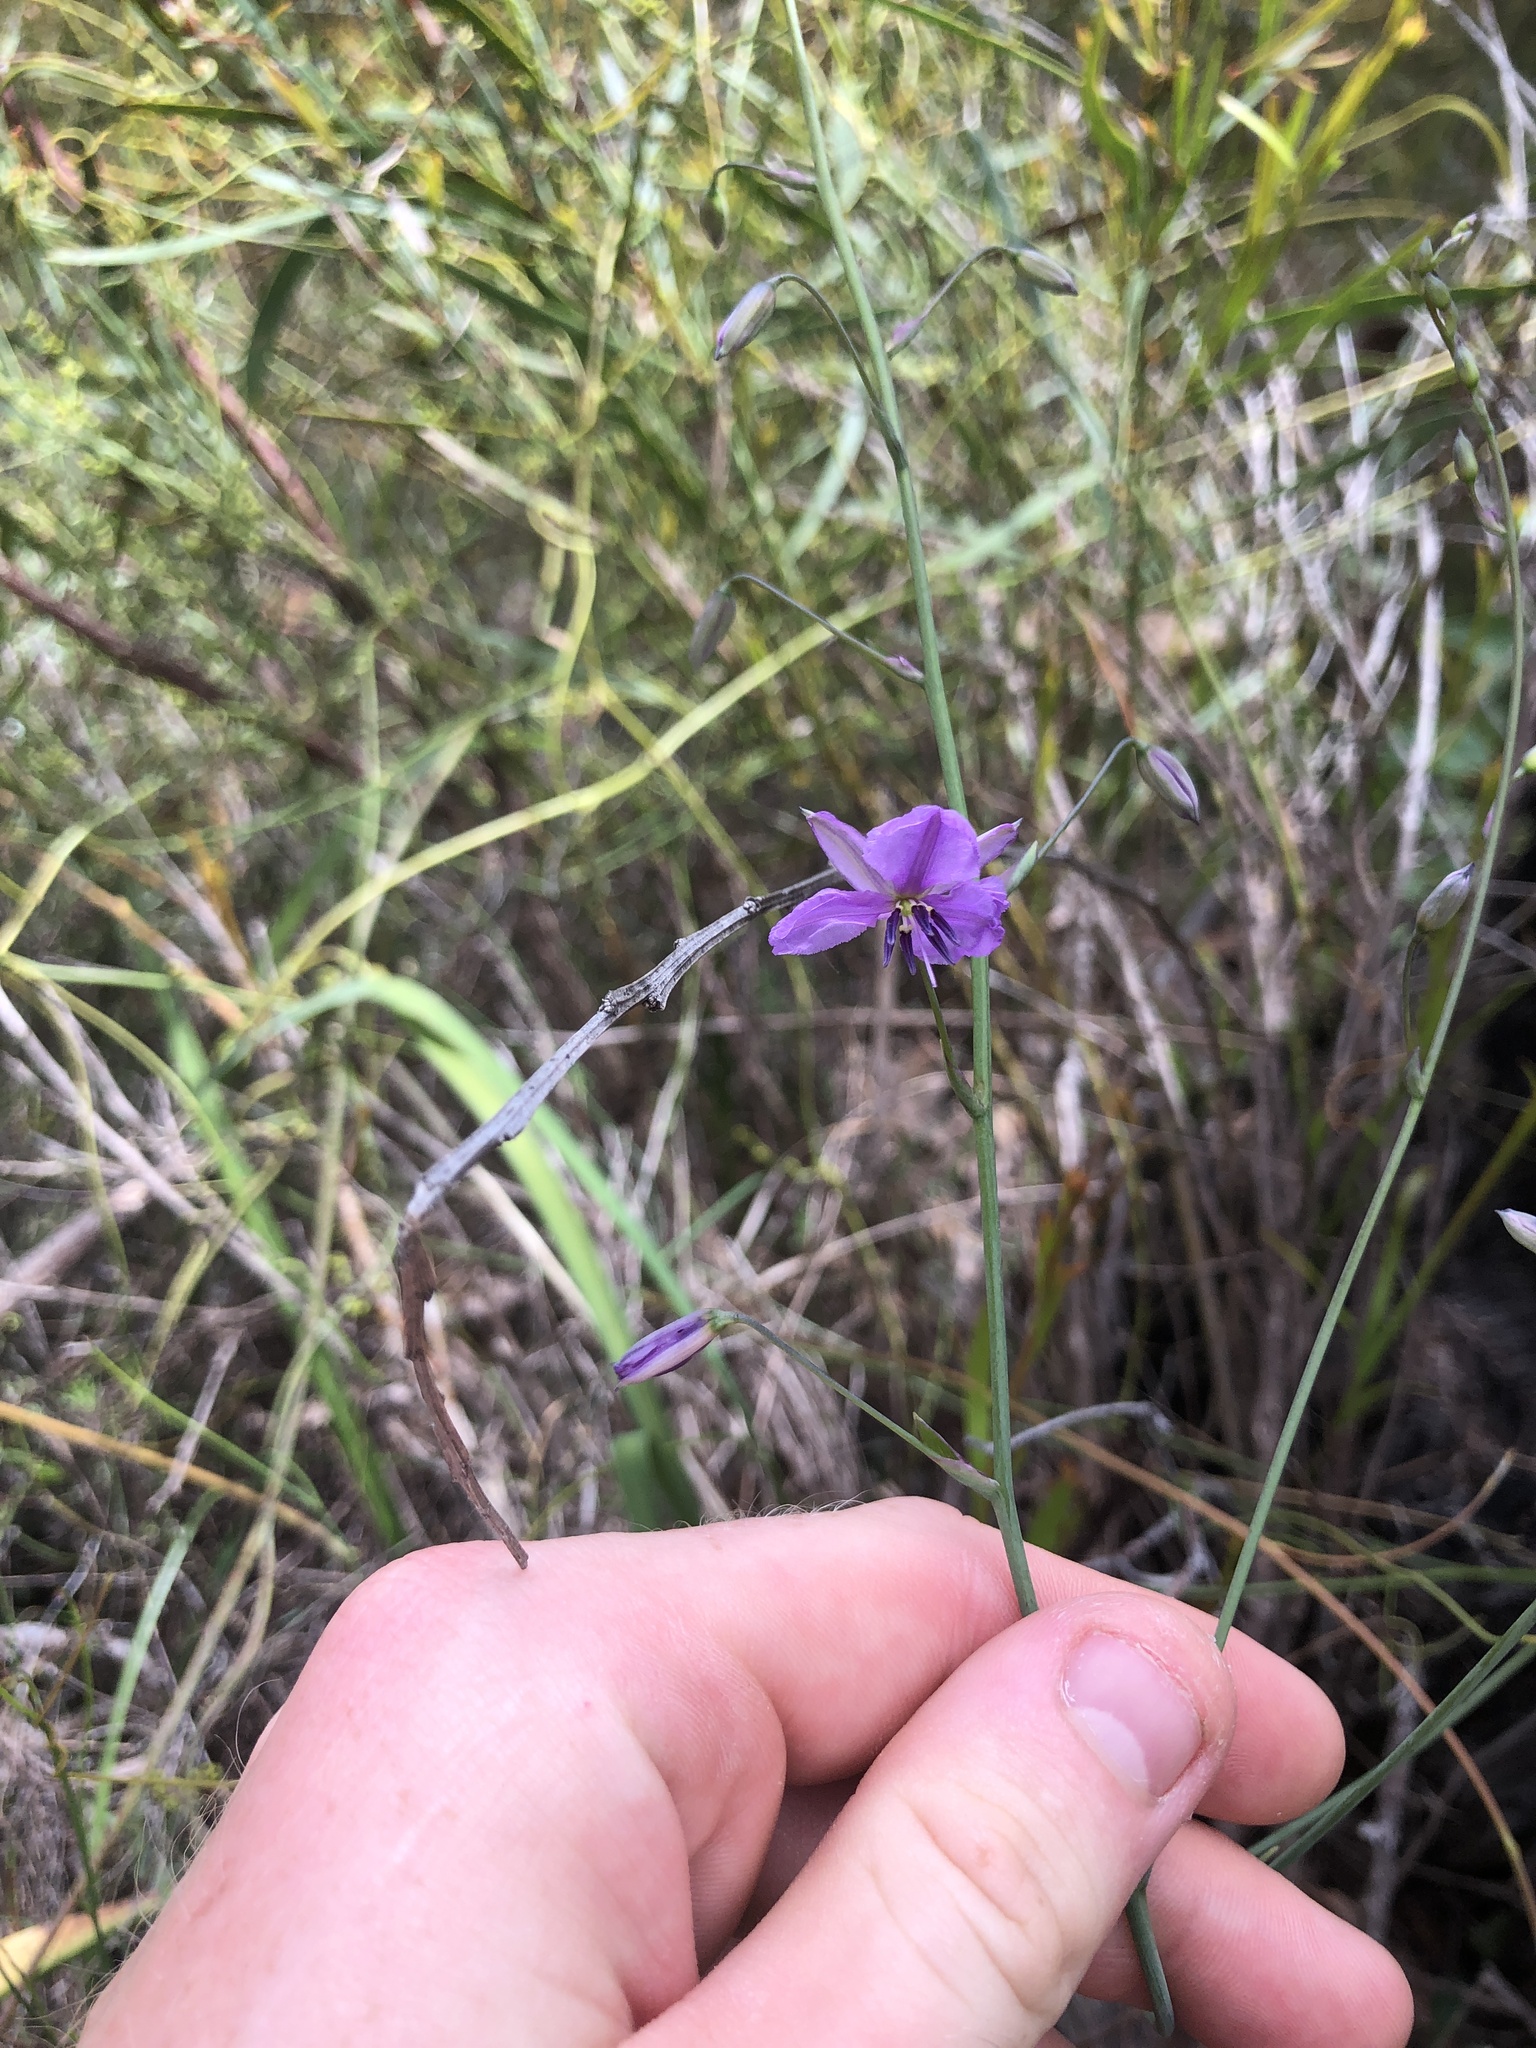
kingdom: Plantae
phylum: Tracheophyta
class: Liliopsida
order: Asparagales
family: Asparagaceae
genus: Arthropodium
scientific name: Arthropodium strictum
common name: Chocolate-lily
